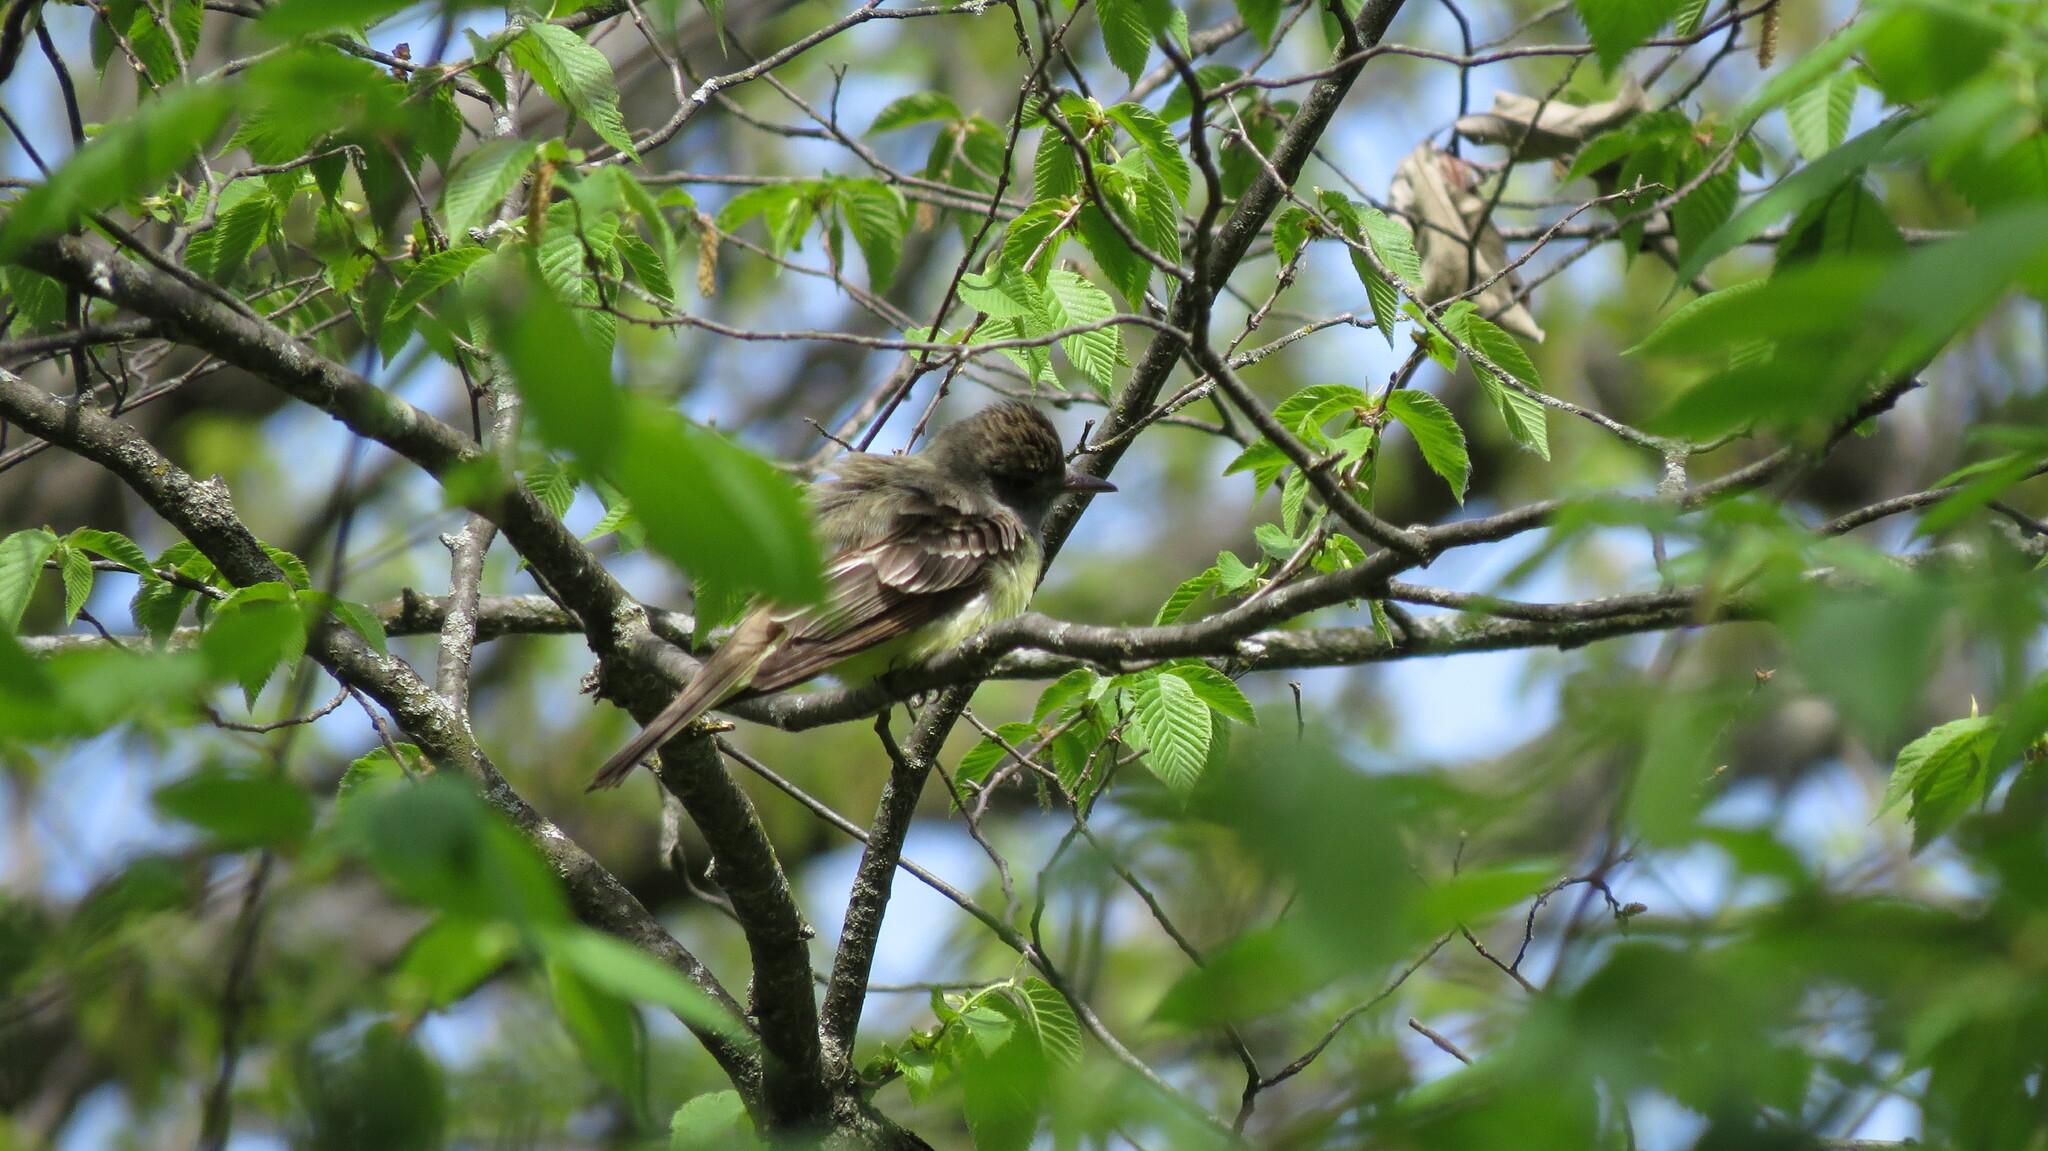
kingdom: Animalia
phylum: Chordata
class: Aves
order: Passeriformes
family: Tyrannidae
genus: Myiarchus
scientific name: Myiarchus crinitus
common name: Great crested flycatcher
